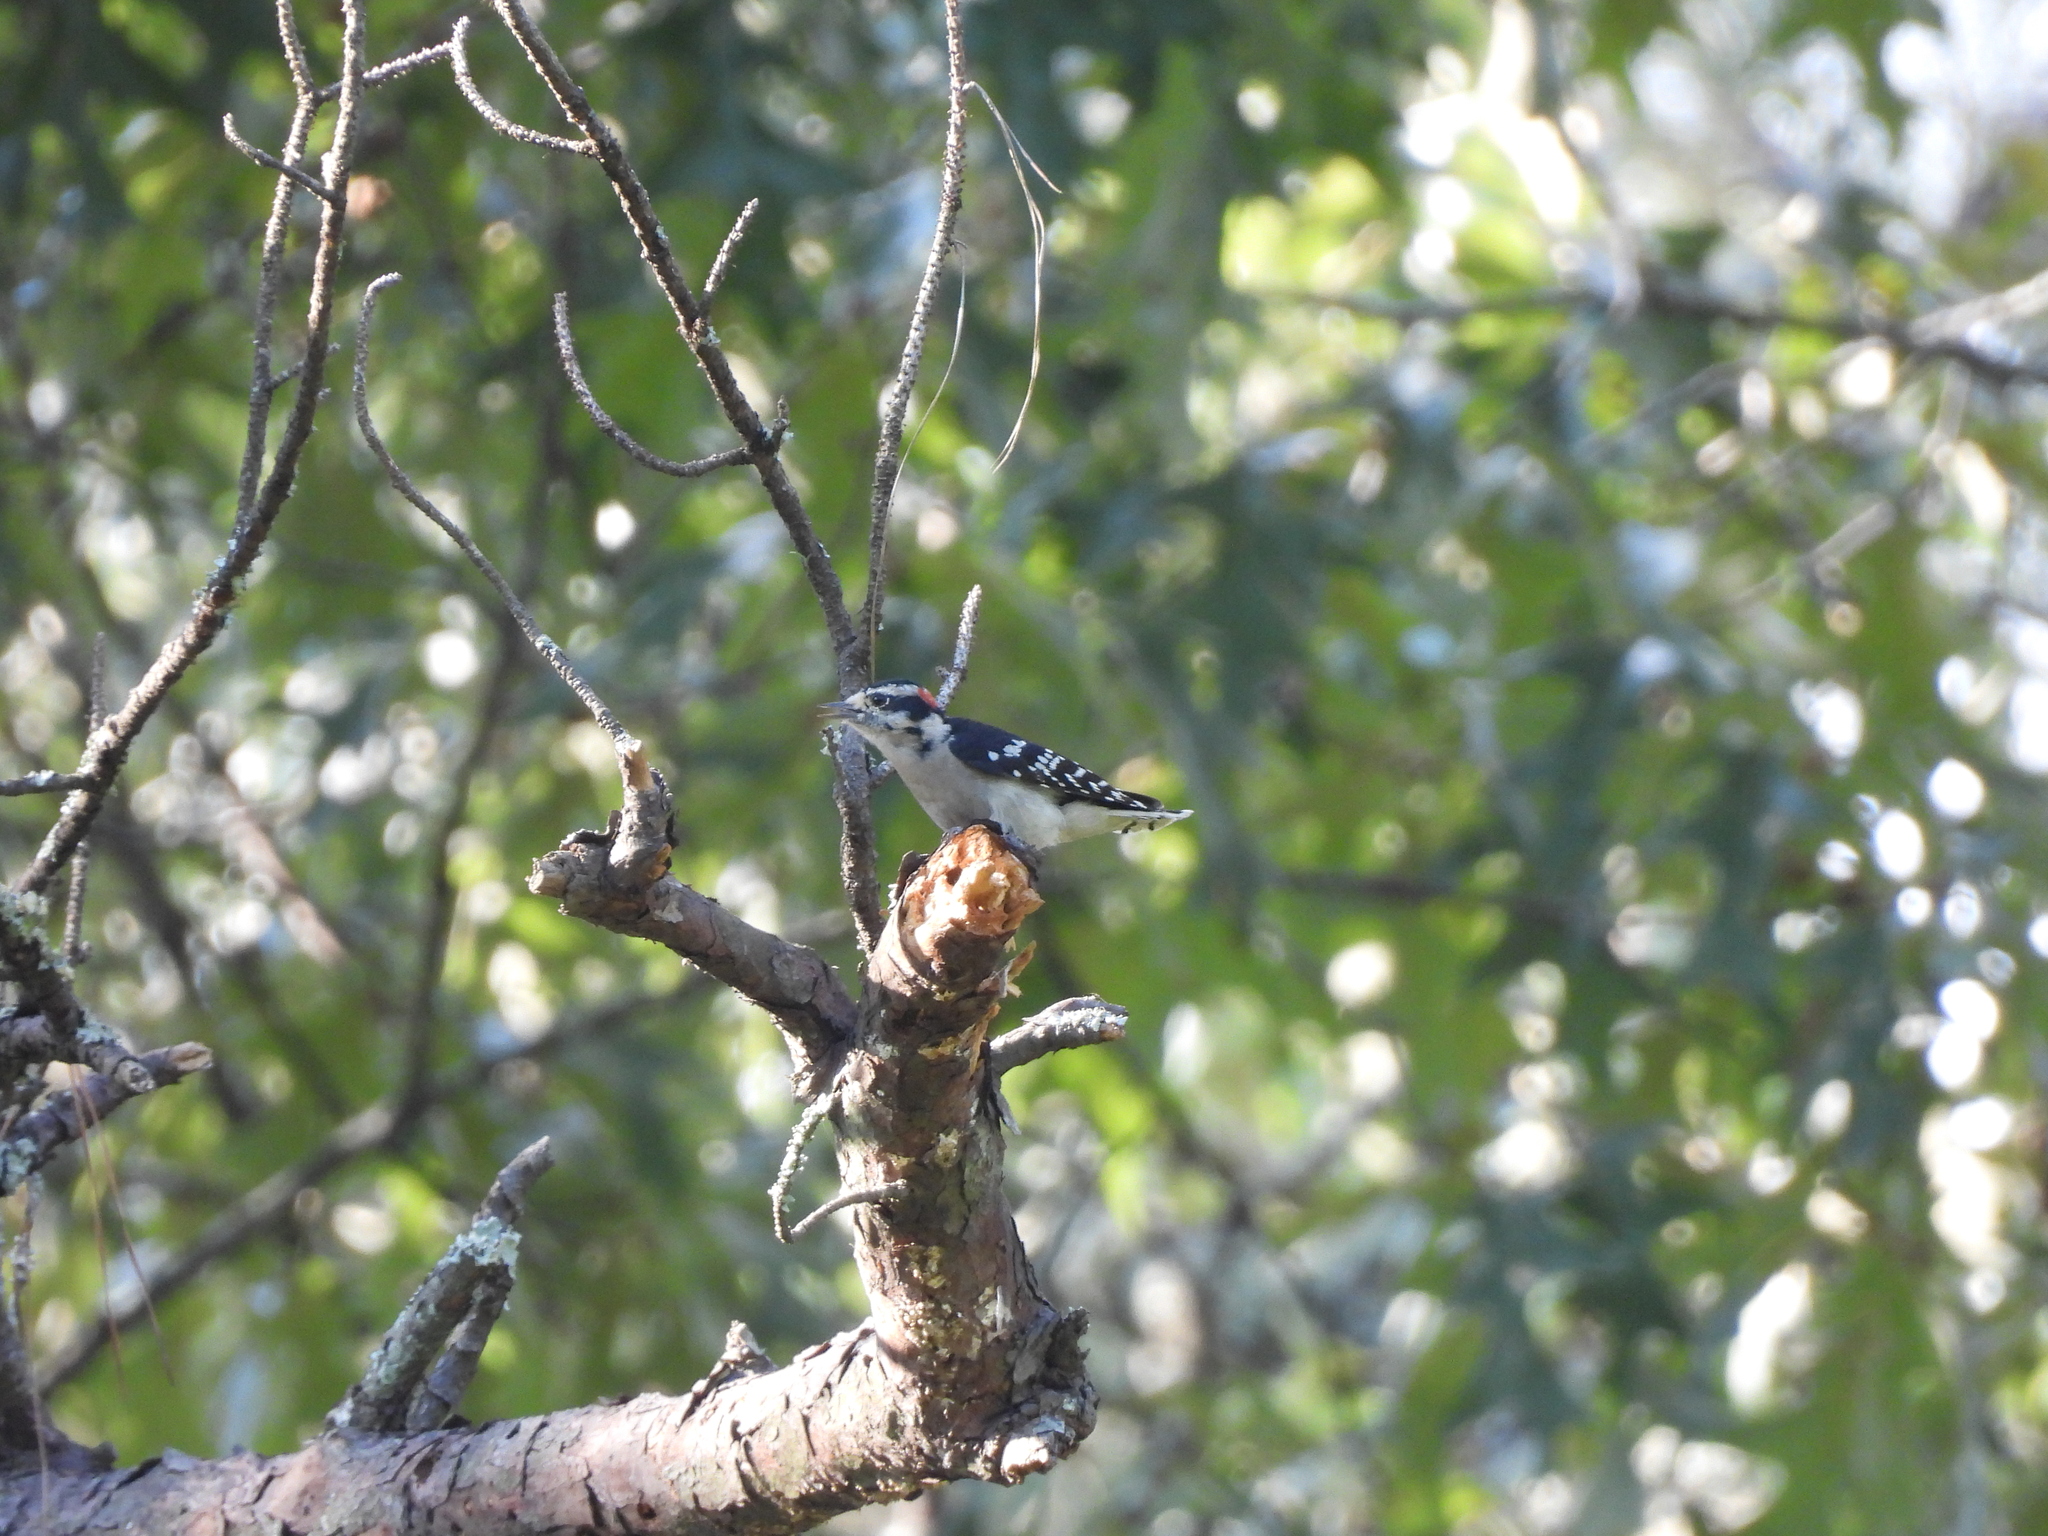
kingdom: Animalia
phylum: Chordata
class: Aves
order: Piciformes
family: Picidae
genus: Dryobates
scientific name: Dryobates pubescens
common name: Downy woodpecker
